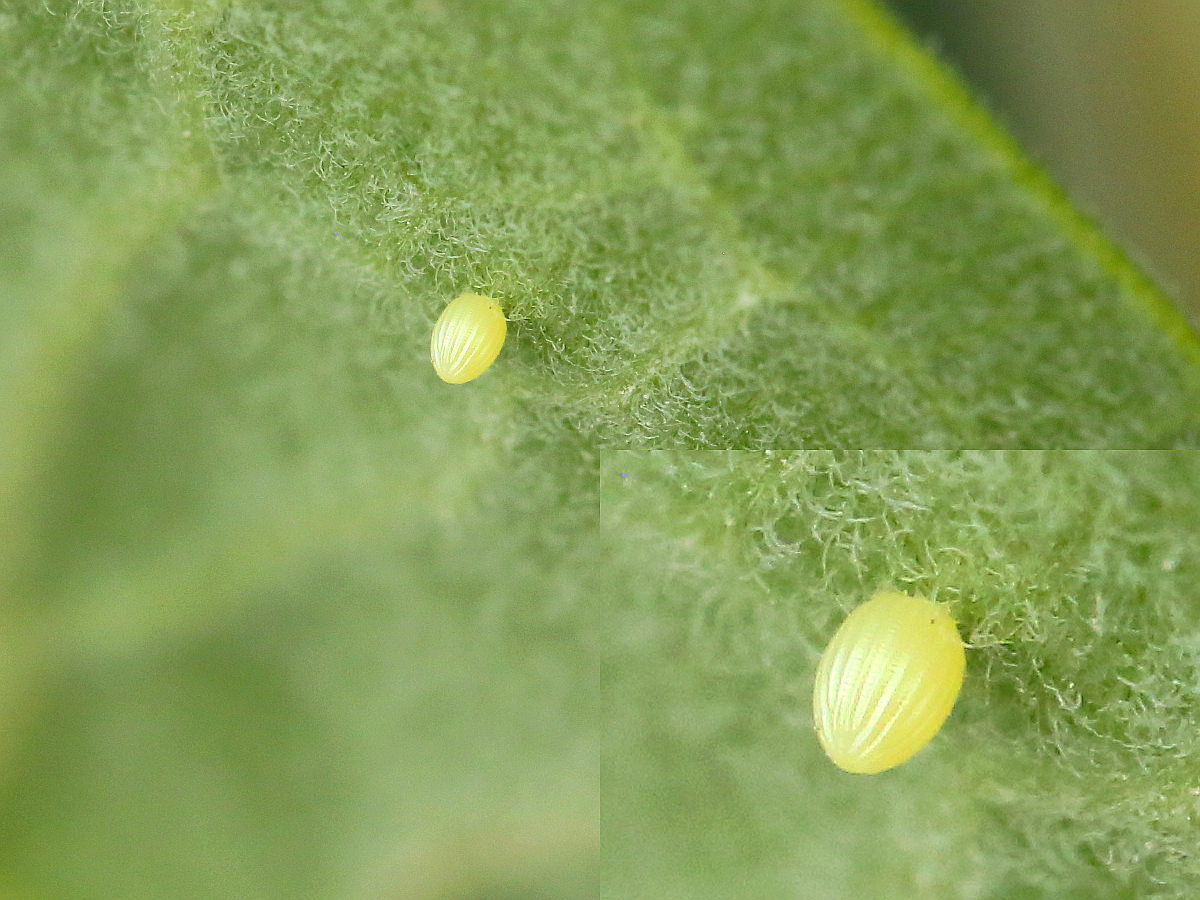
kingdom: Animalia
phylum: Arthropoda
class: Insecta
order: Lepidoptera
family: Nymphalidae
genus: Danaus
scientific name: Danaus plexippus
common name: Monarch
